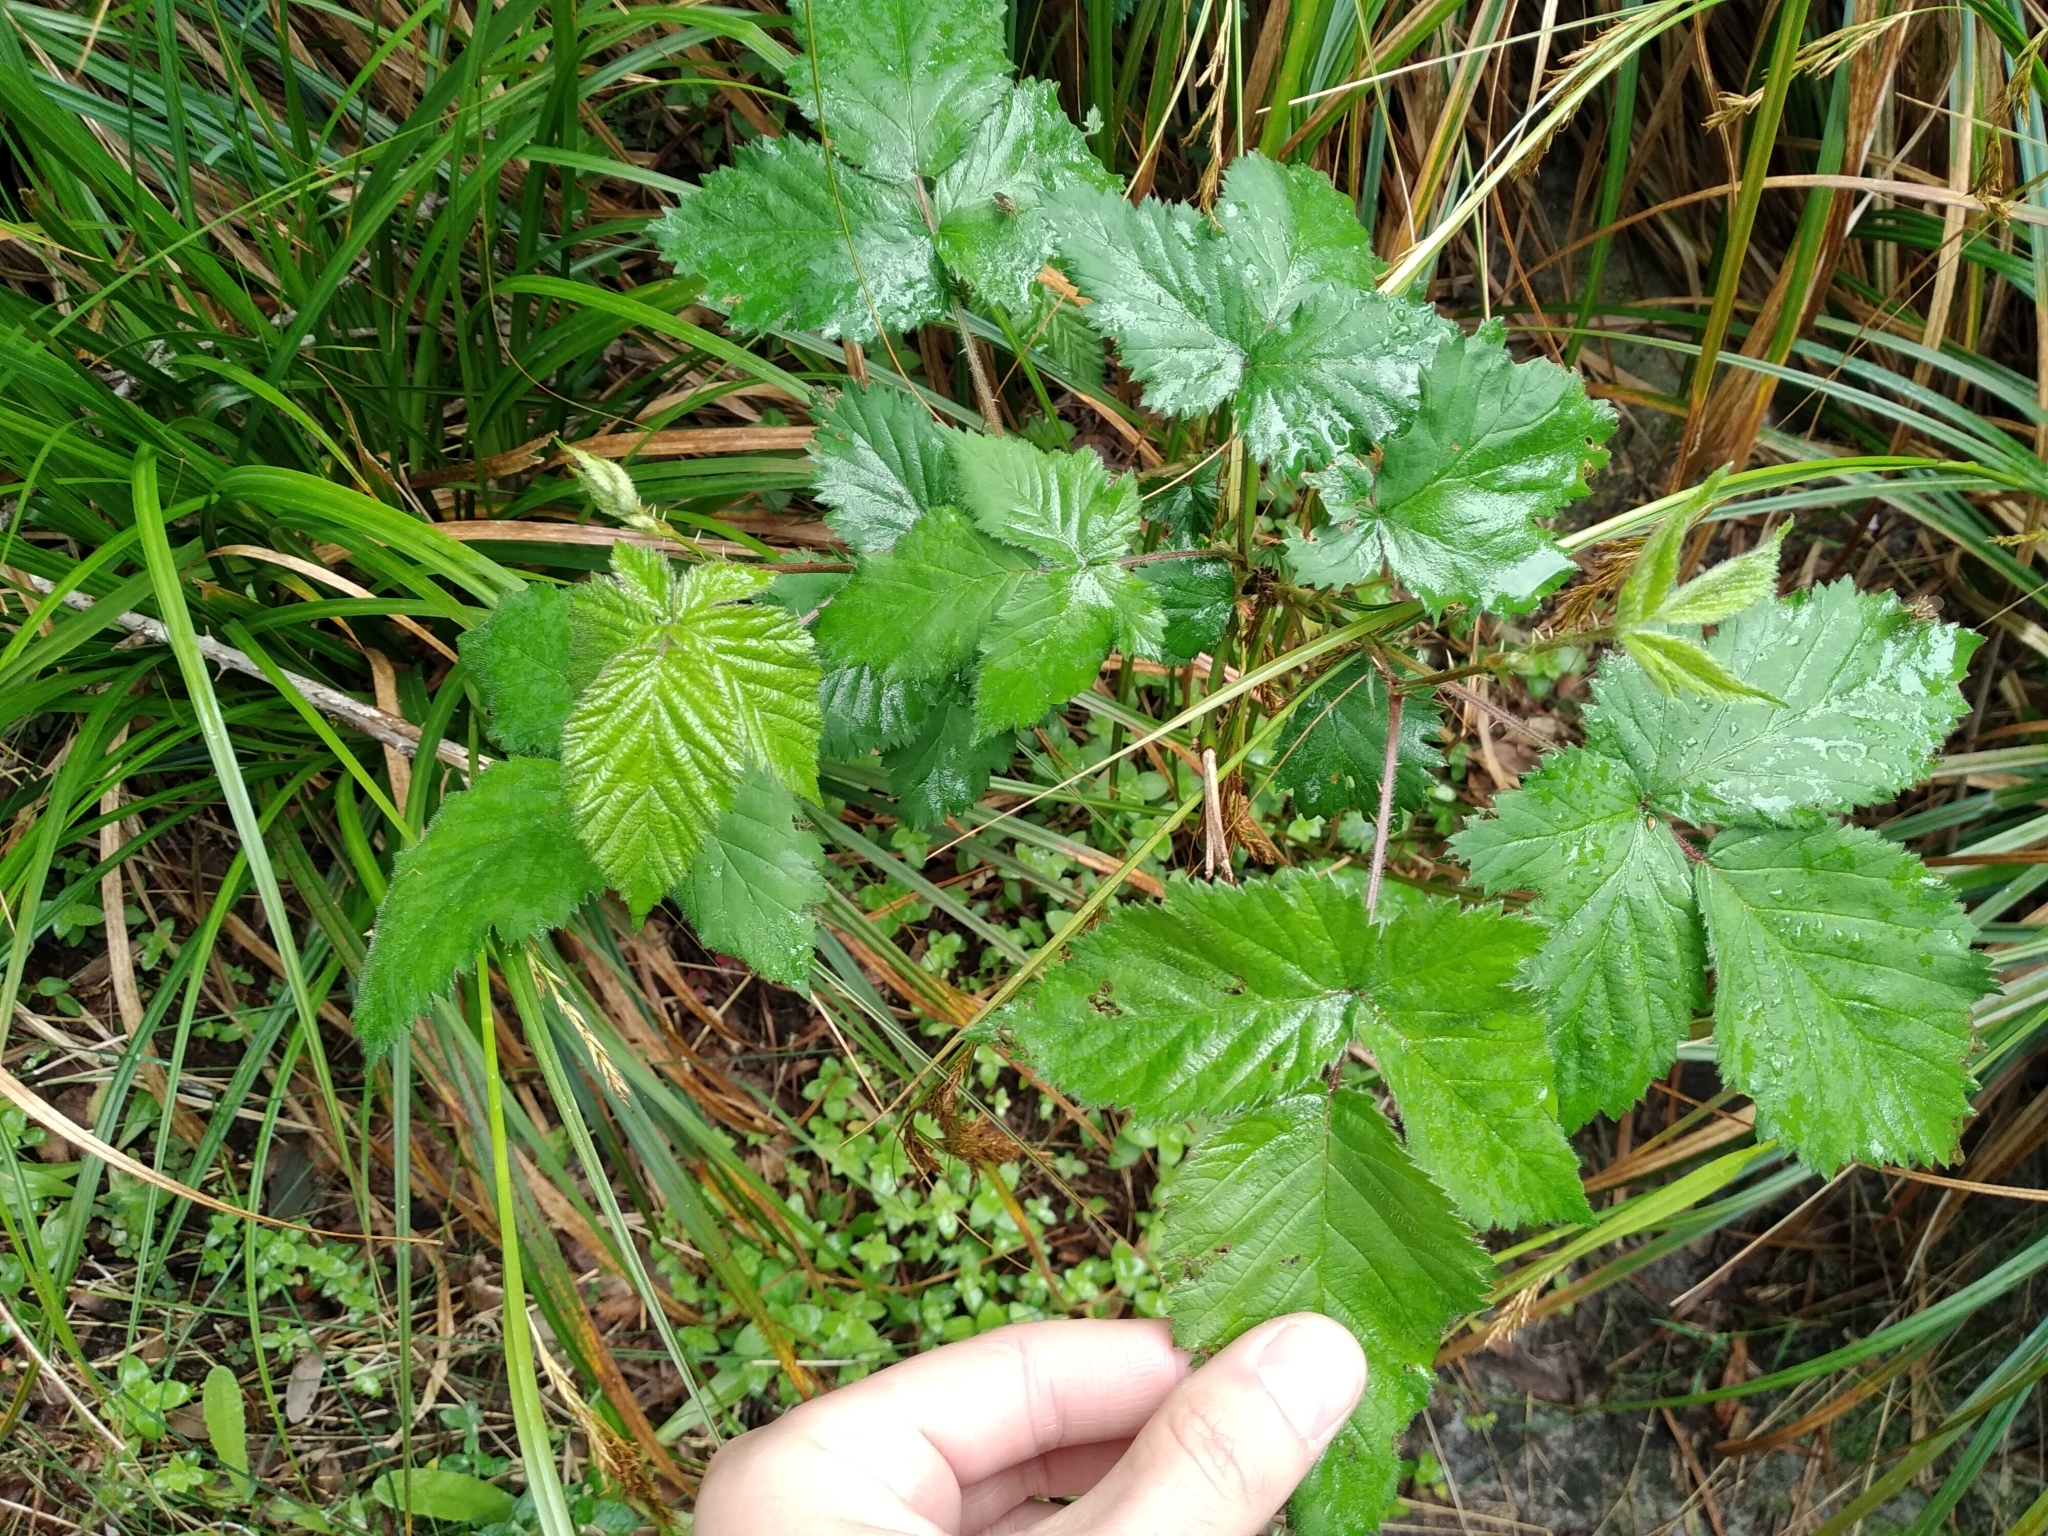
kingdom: Plantae
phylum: Tracheophyta
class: Magnoliopsida
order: Rosales
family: Rosaceae
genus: Rubus
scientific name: Rubus affinis
